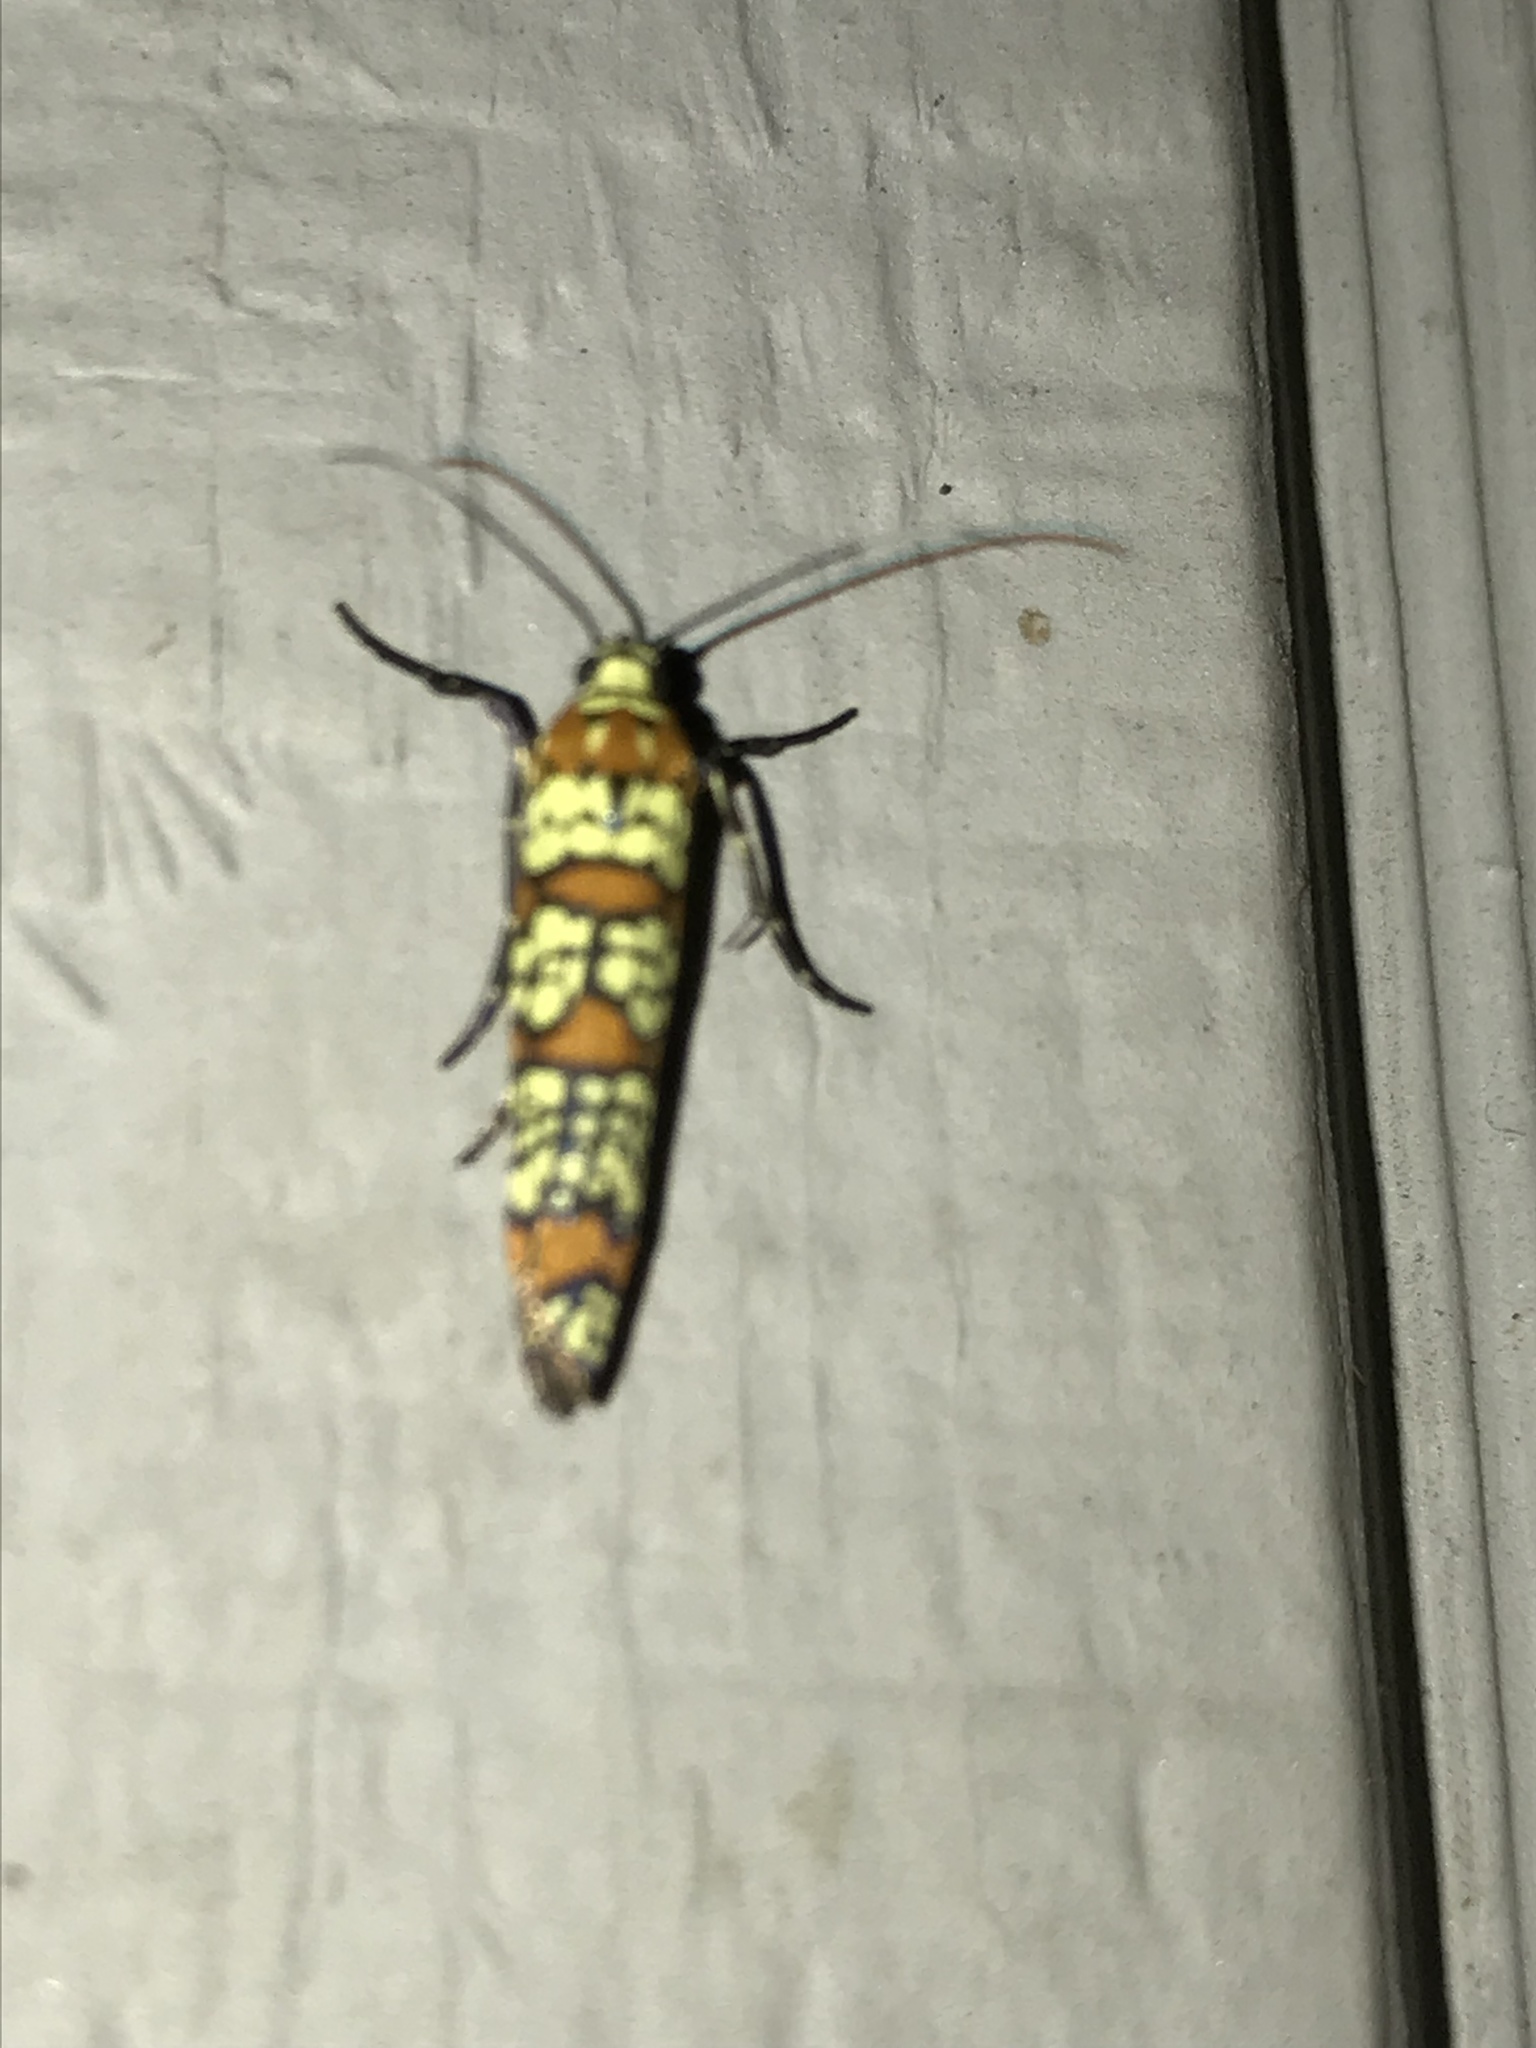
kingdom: Animalia
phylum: Arthropoda
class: Insecta
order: Lepidoptera
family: Attevidae
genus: Atteva
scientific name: Atteva punctella
